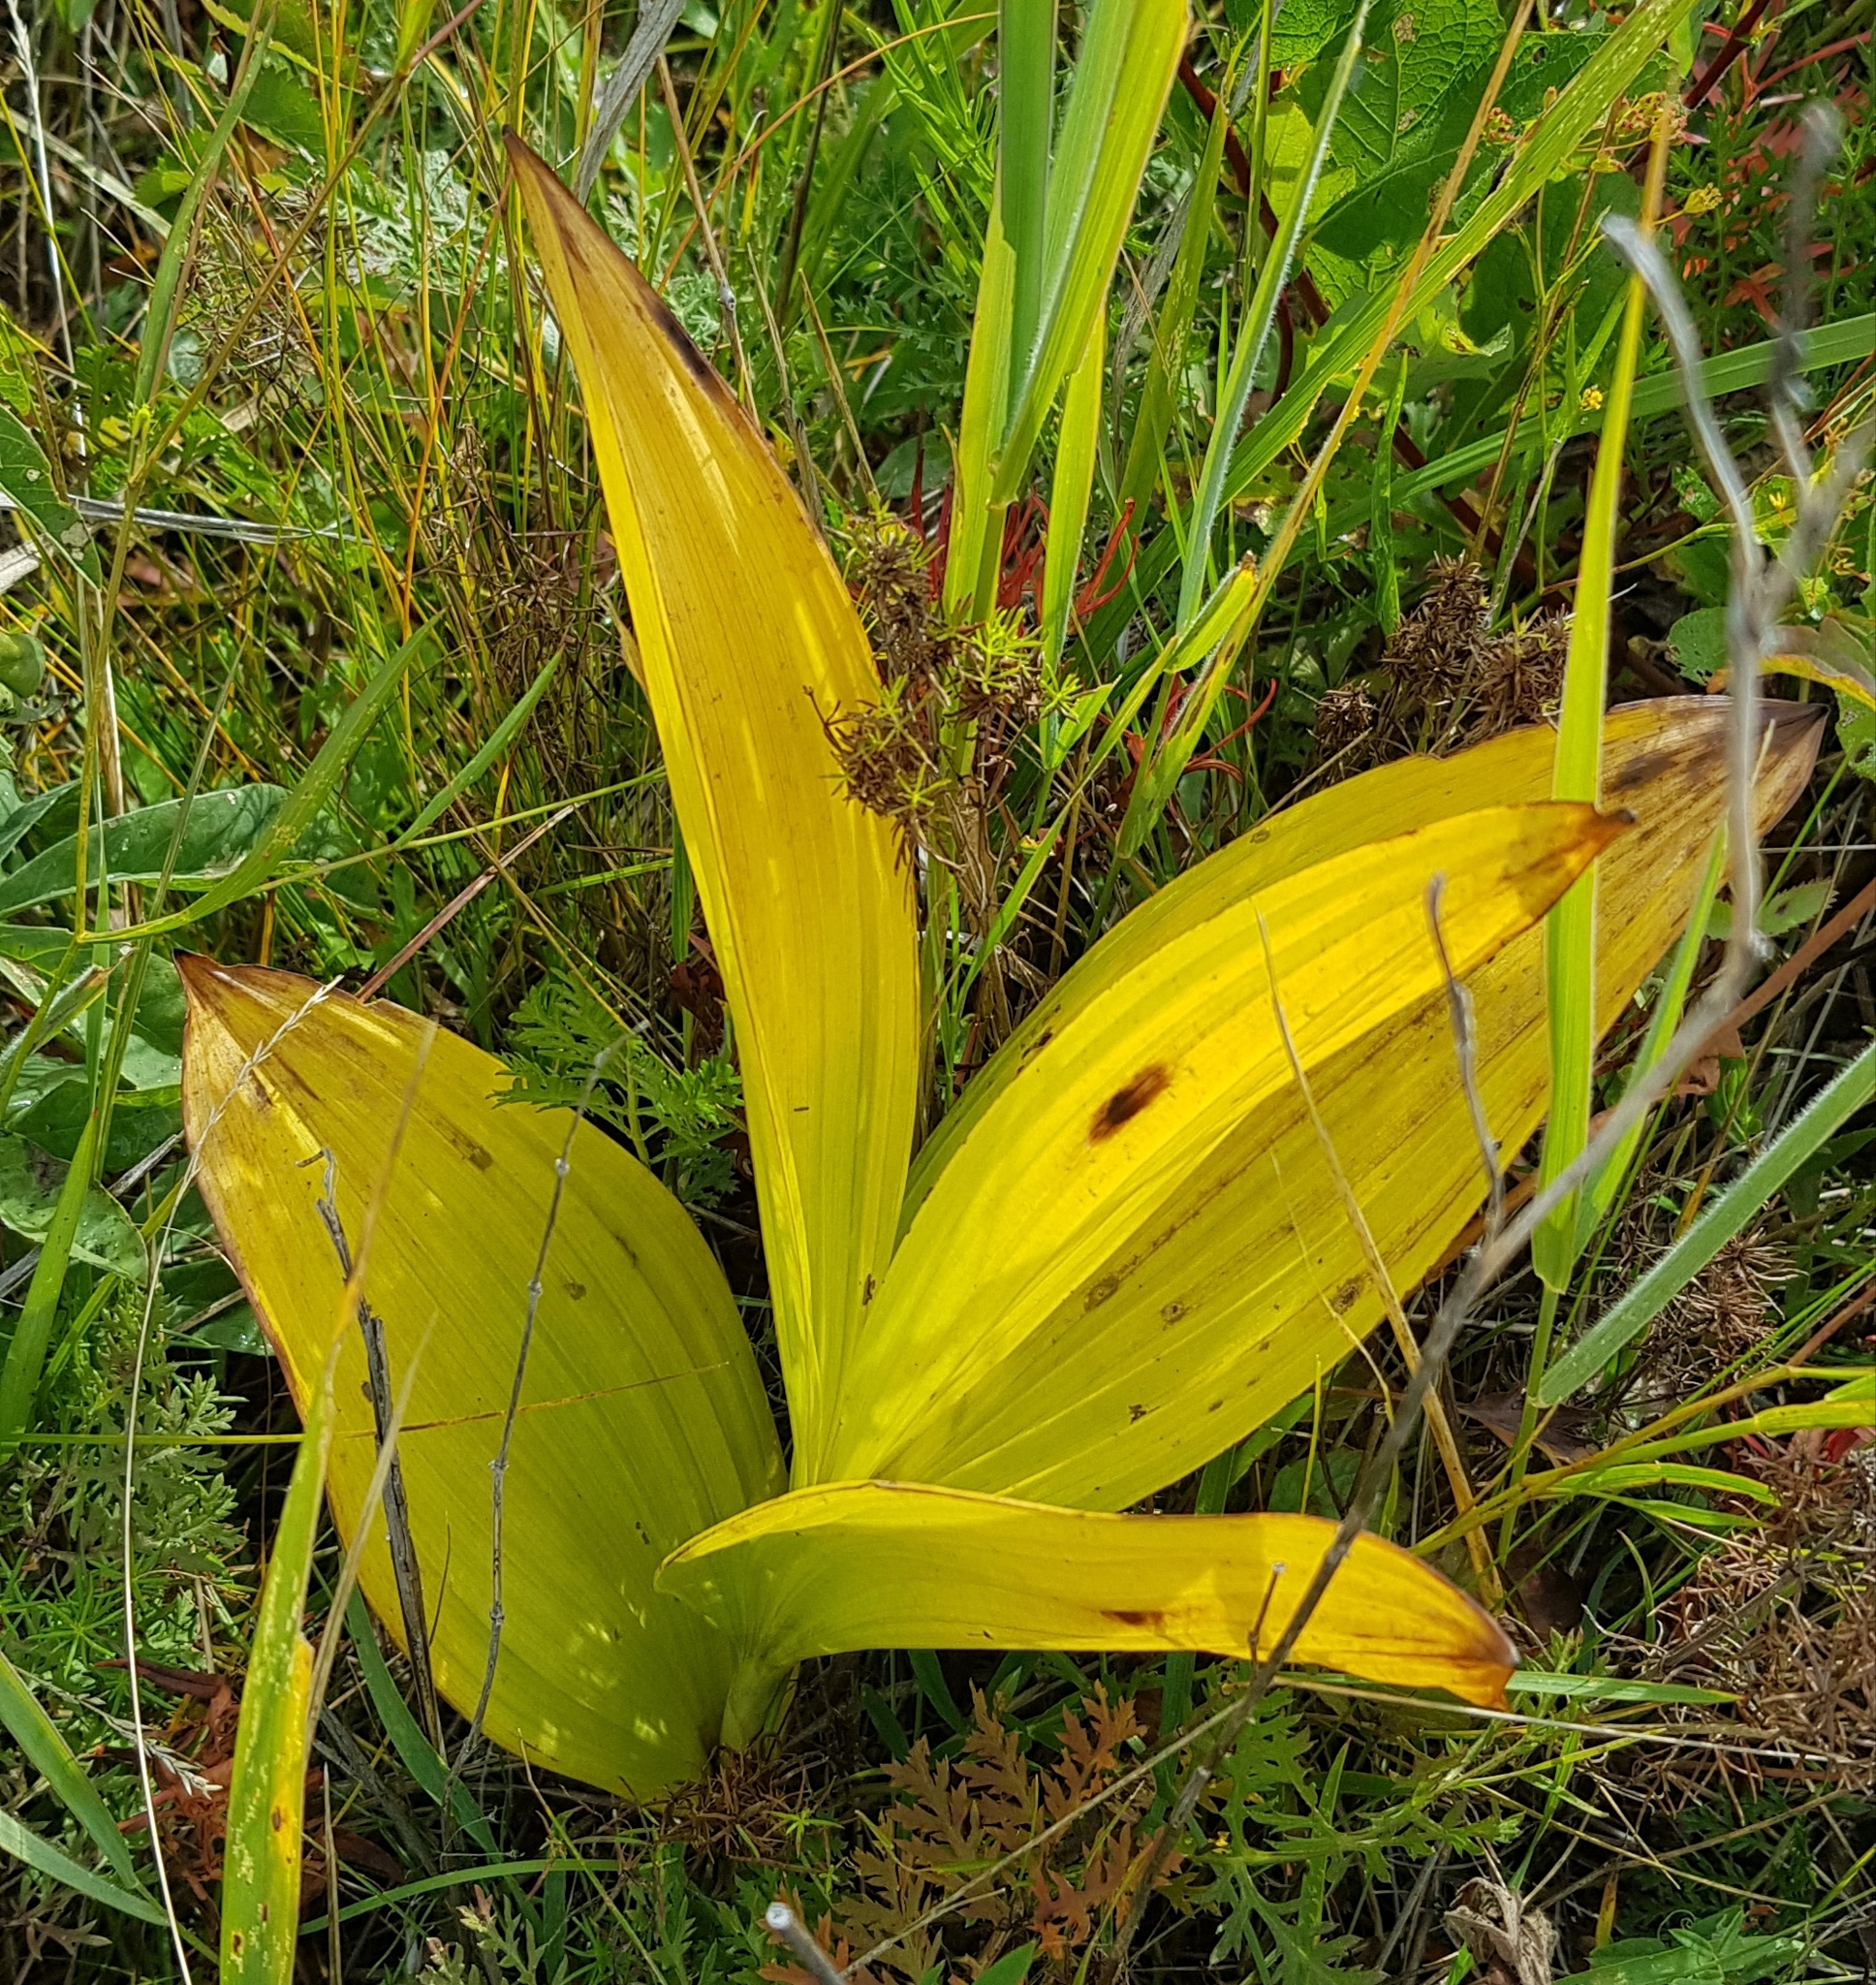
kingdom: Plantae
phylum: Tracheophyta
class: Liliopsida
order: Liliales
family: Melanthiaceae
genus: Veratrum
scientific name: Veratrum lobelianum
